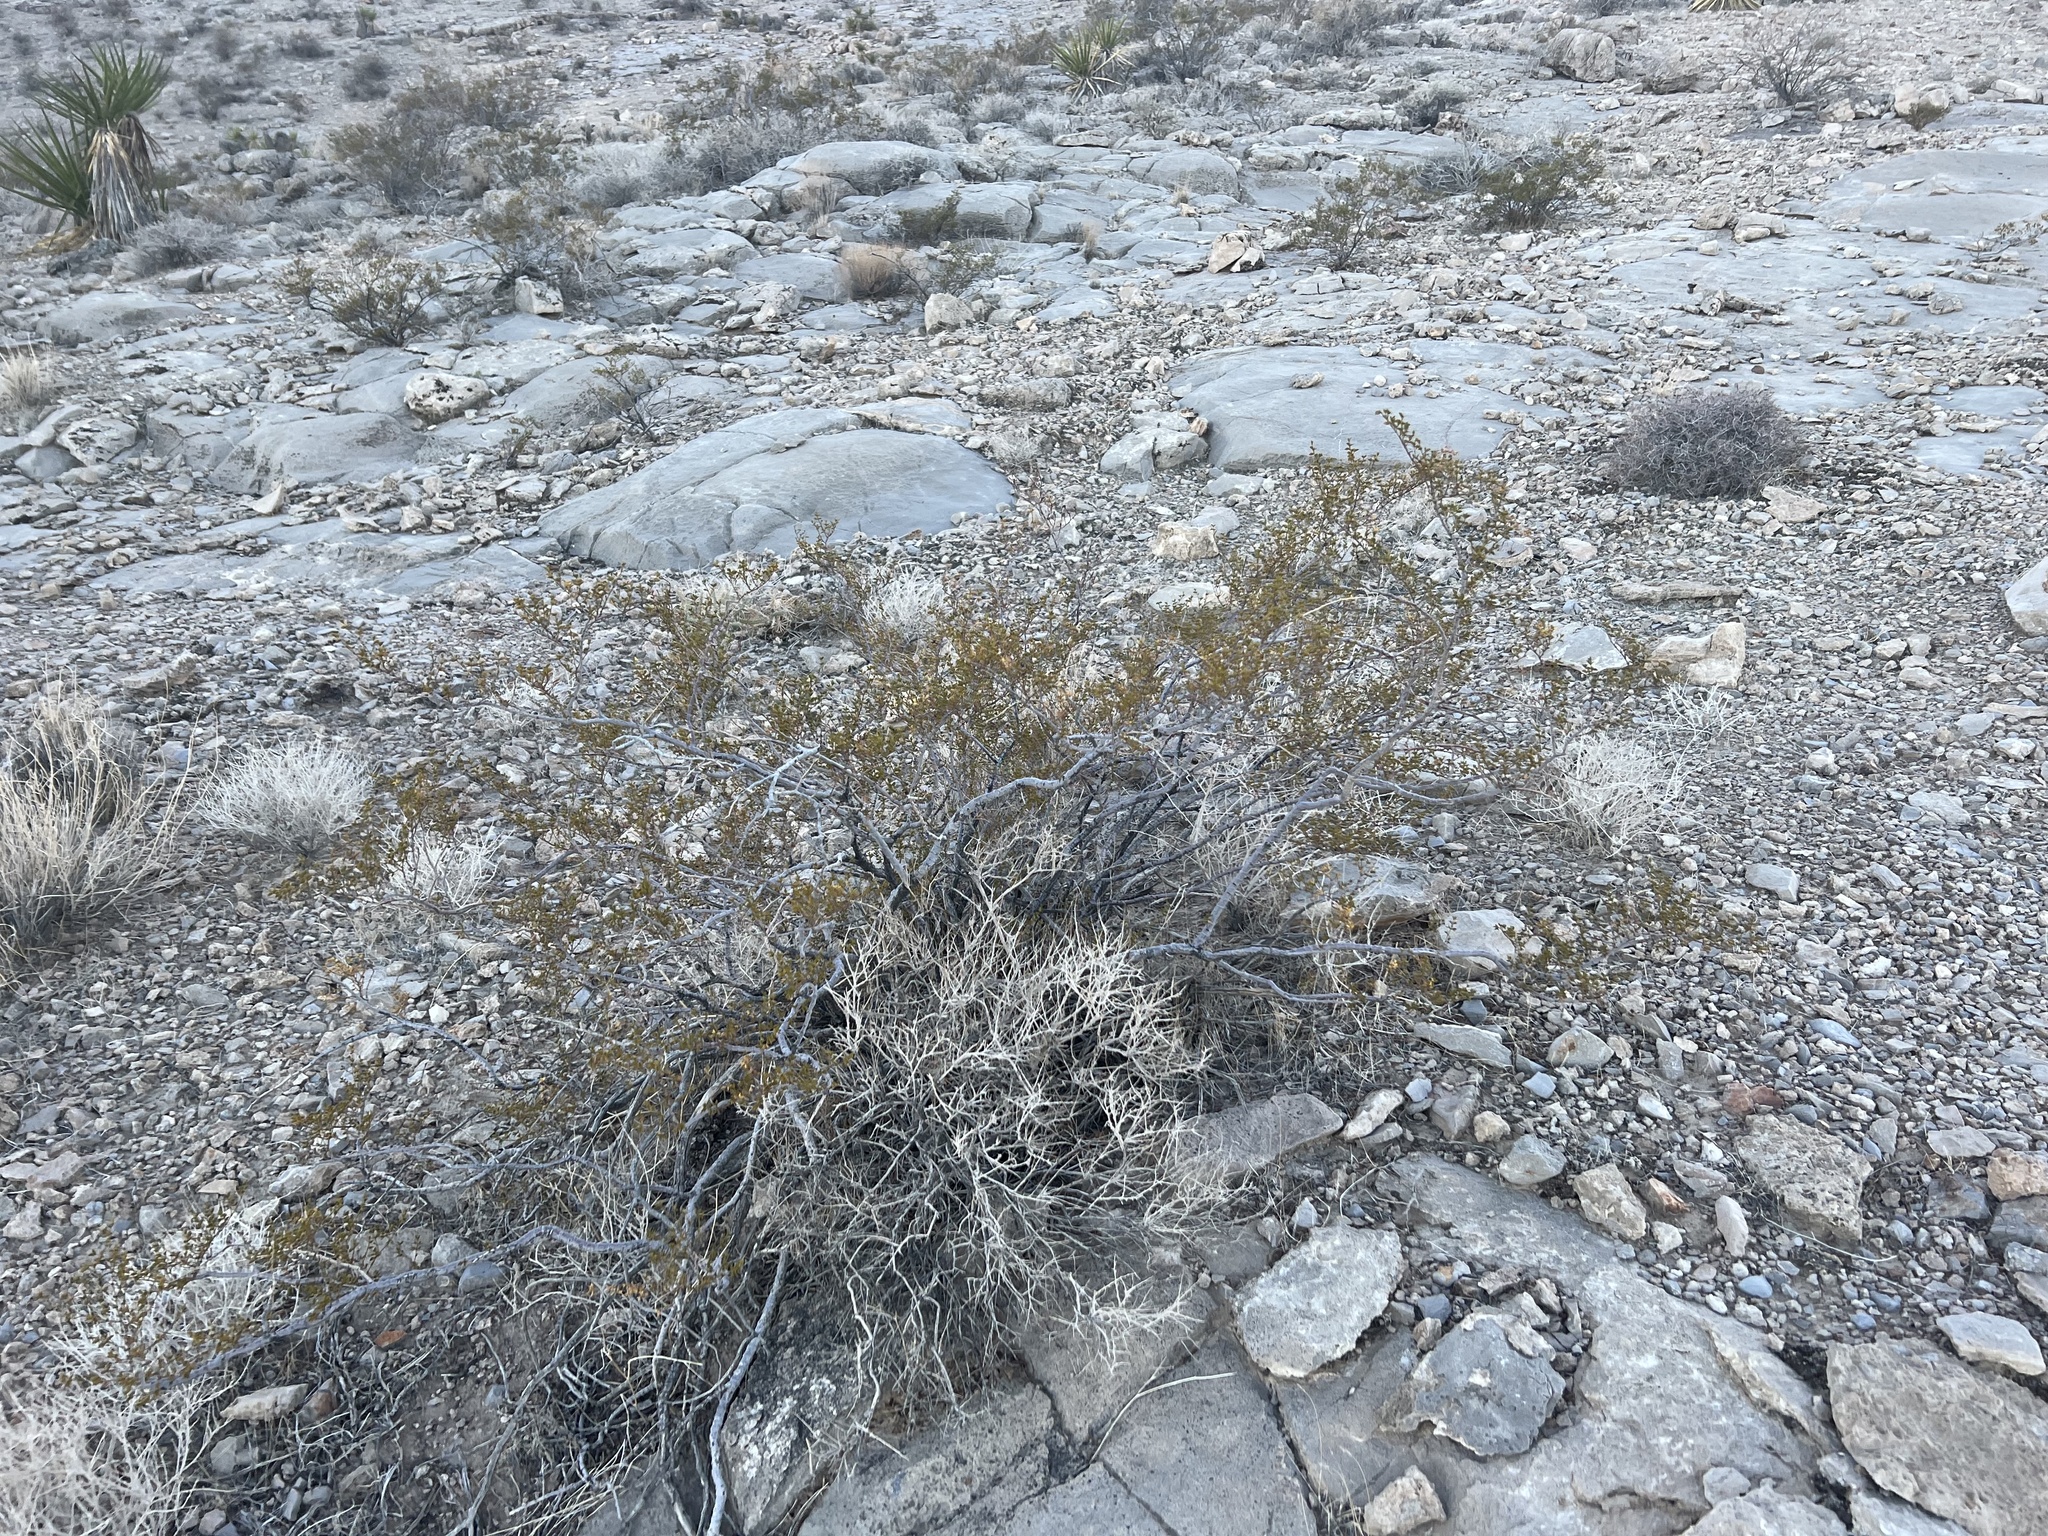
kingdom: Plantae
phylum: Tracheophyta
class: Magnoliopsida
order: Zygophyllales
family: Zygophyllaceae
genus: Larrea
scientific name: Larrea tridentata
